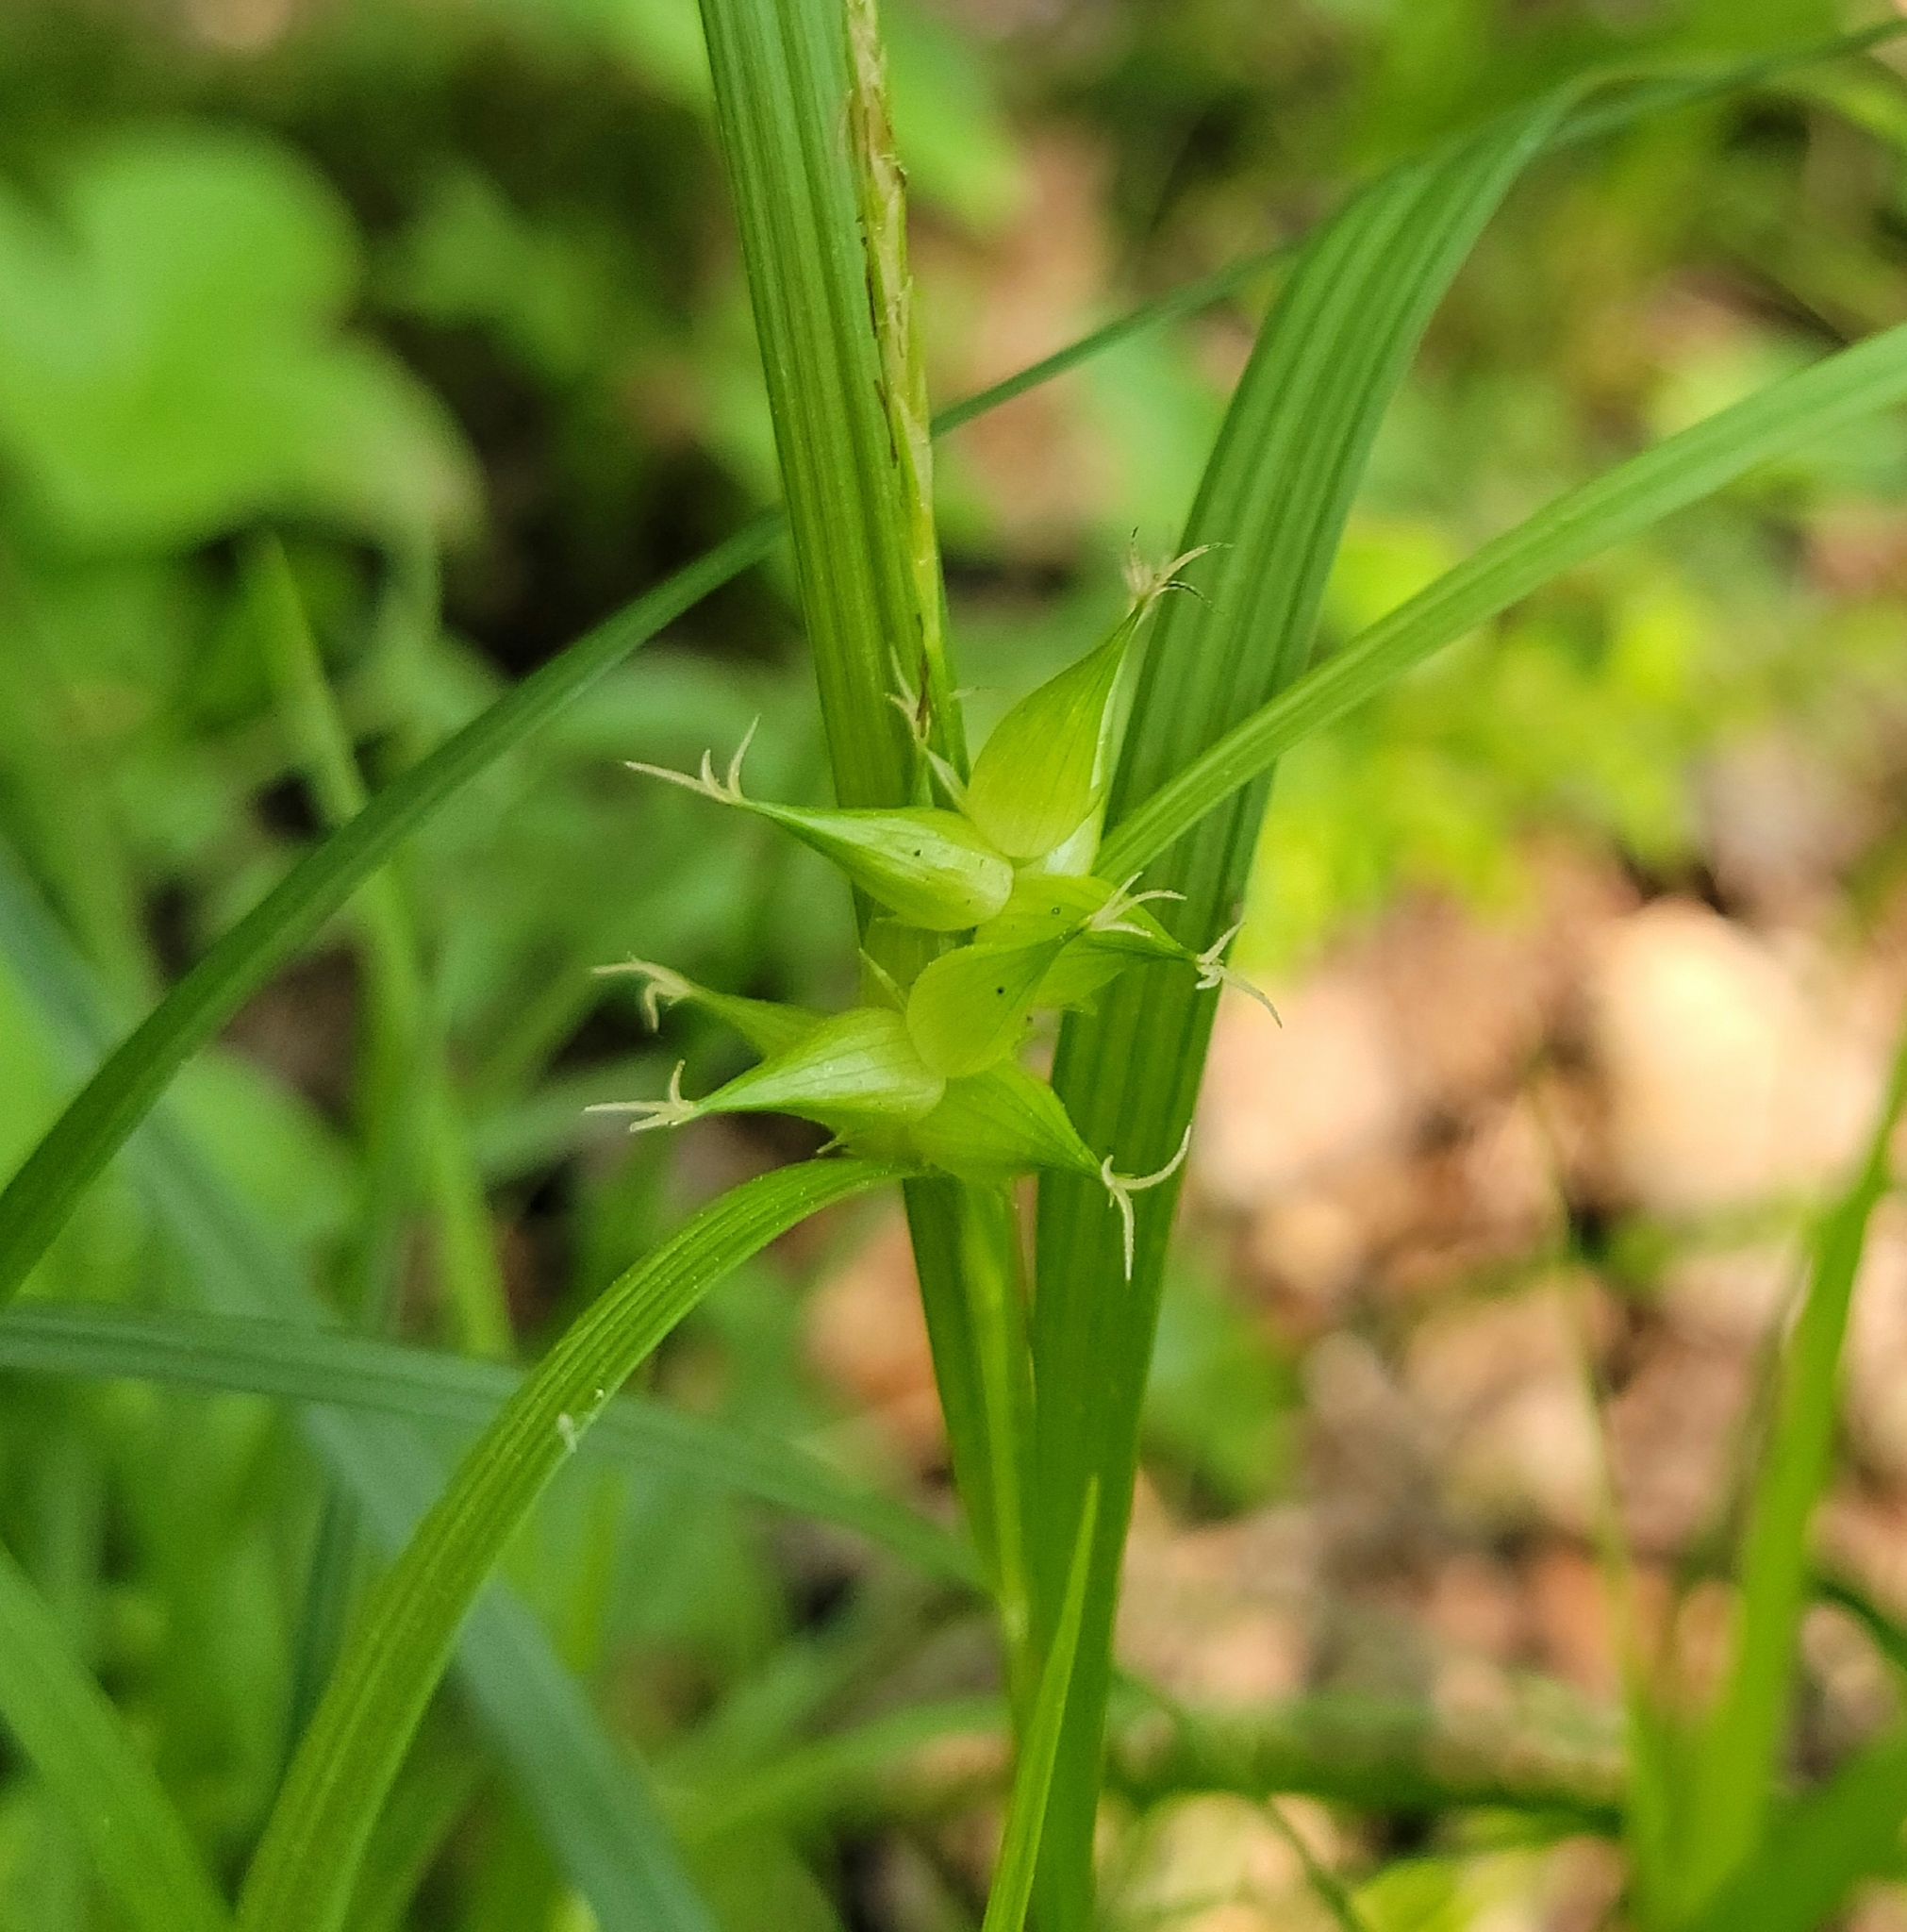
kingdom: Plantae
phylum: Tracheophyta
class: Liliopsida
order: Poales
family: Cyperaceae
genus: Carex
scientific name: Carex intumescens
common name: Greater bladder sedge
